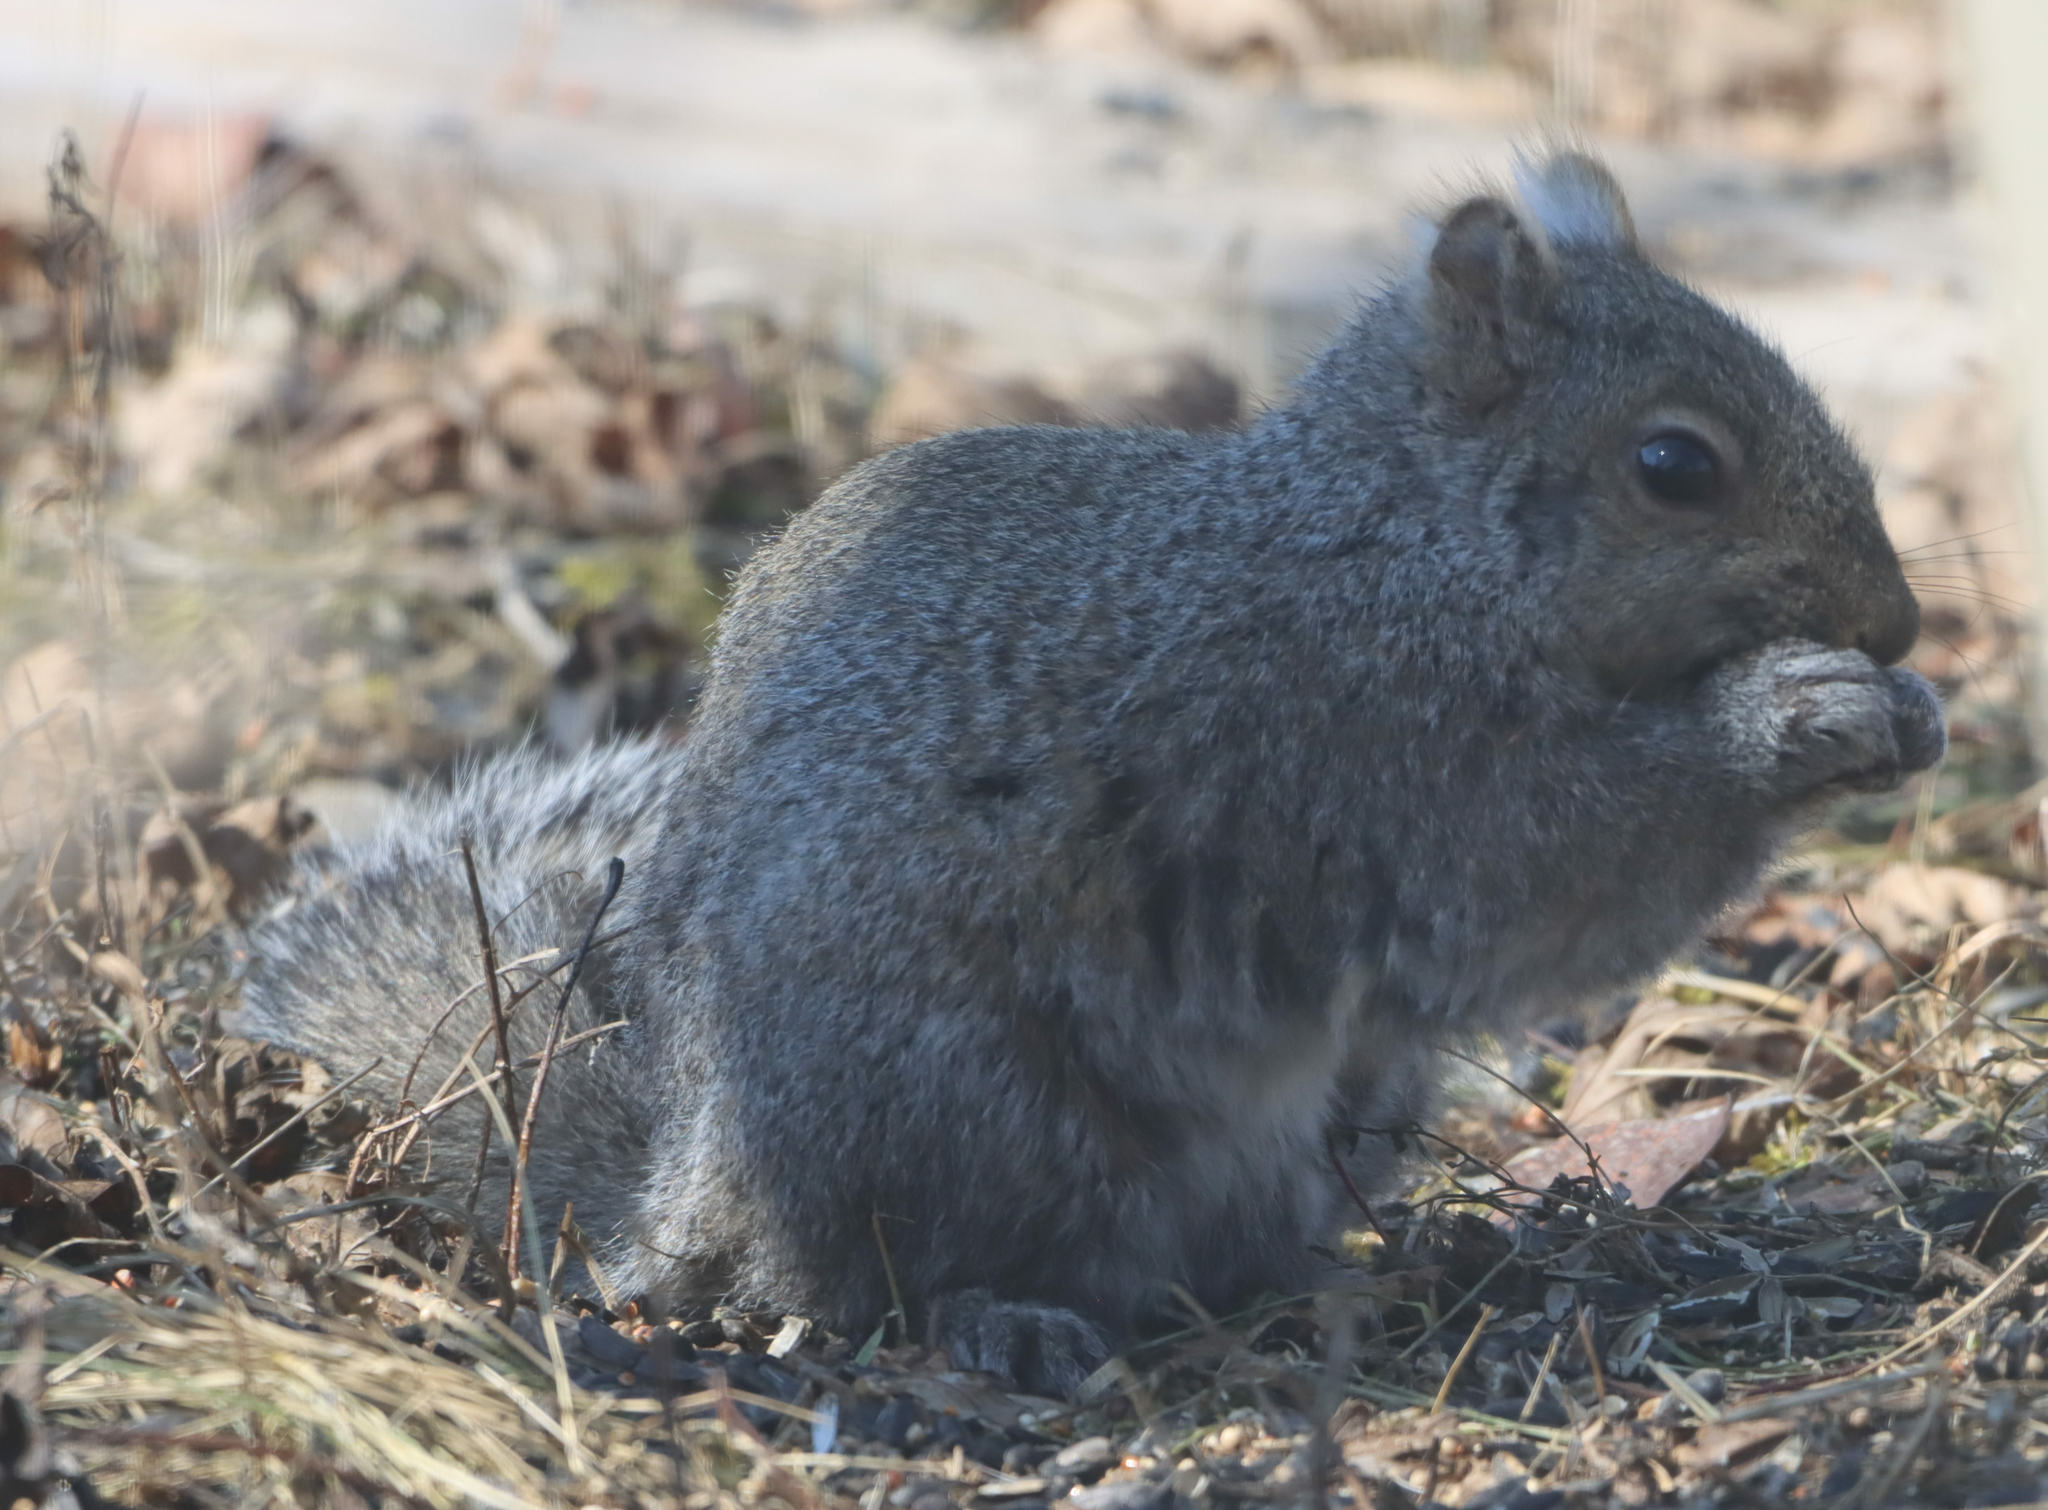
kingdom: Animalia
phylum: Chordata
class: Mammalia
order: Rodentia
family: Sciuridae
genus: Sciurus
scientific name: Sciurus carolinensis
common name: Eastern gray squirrel
